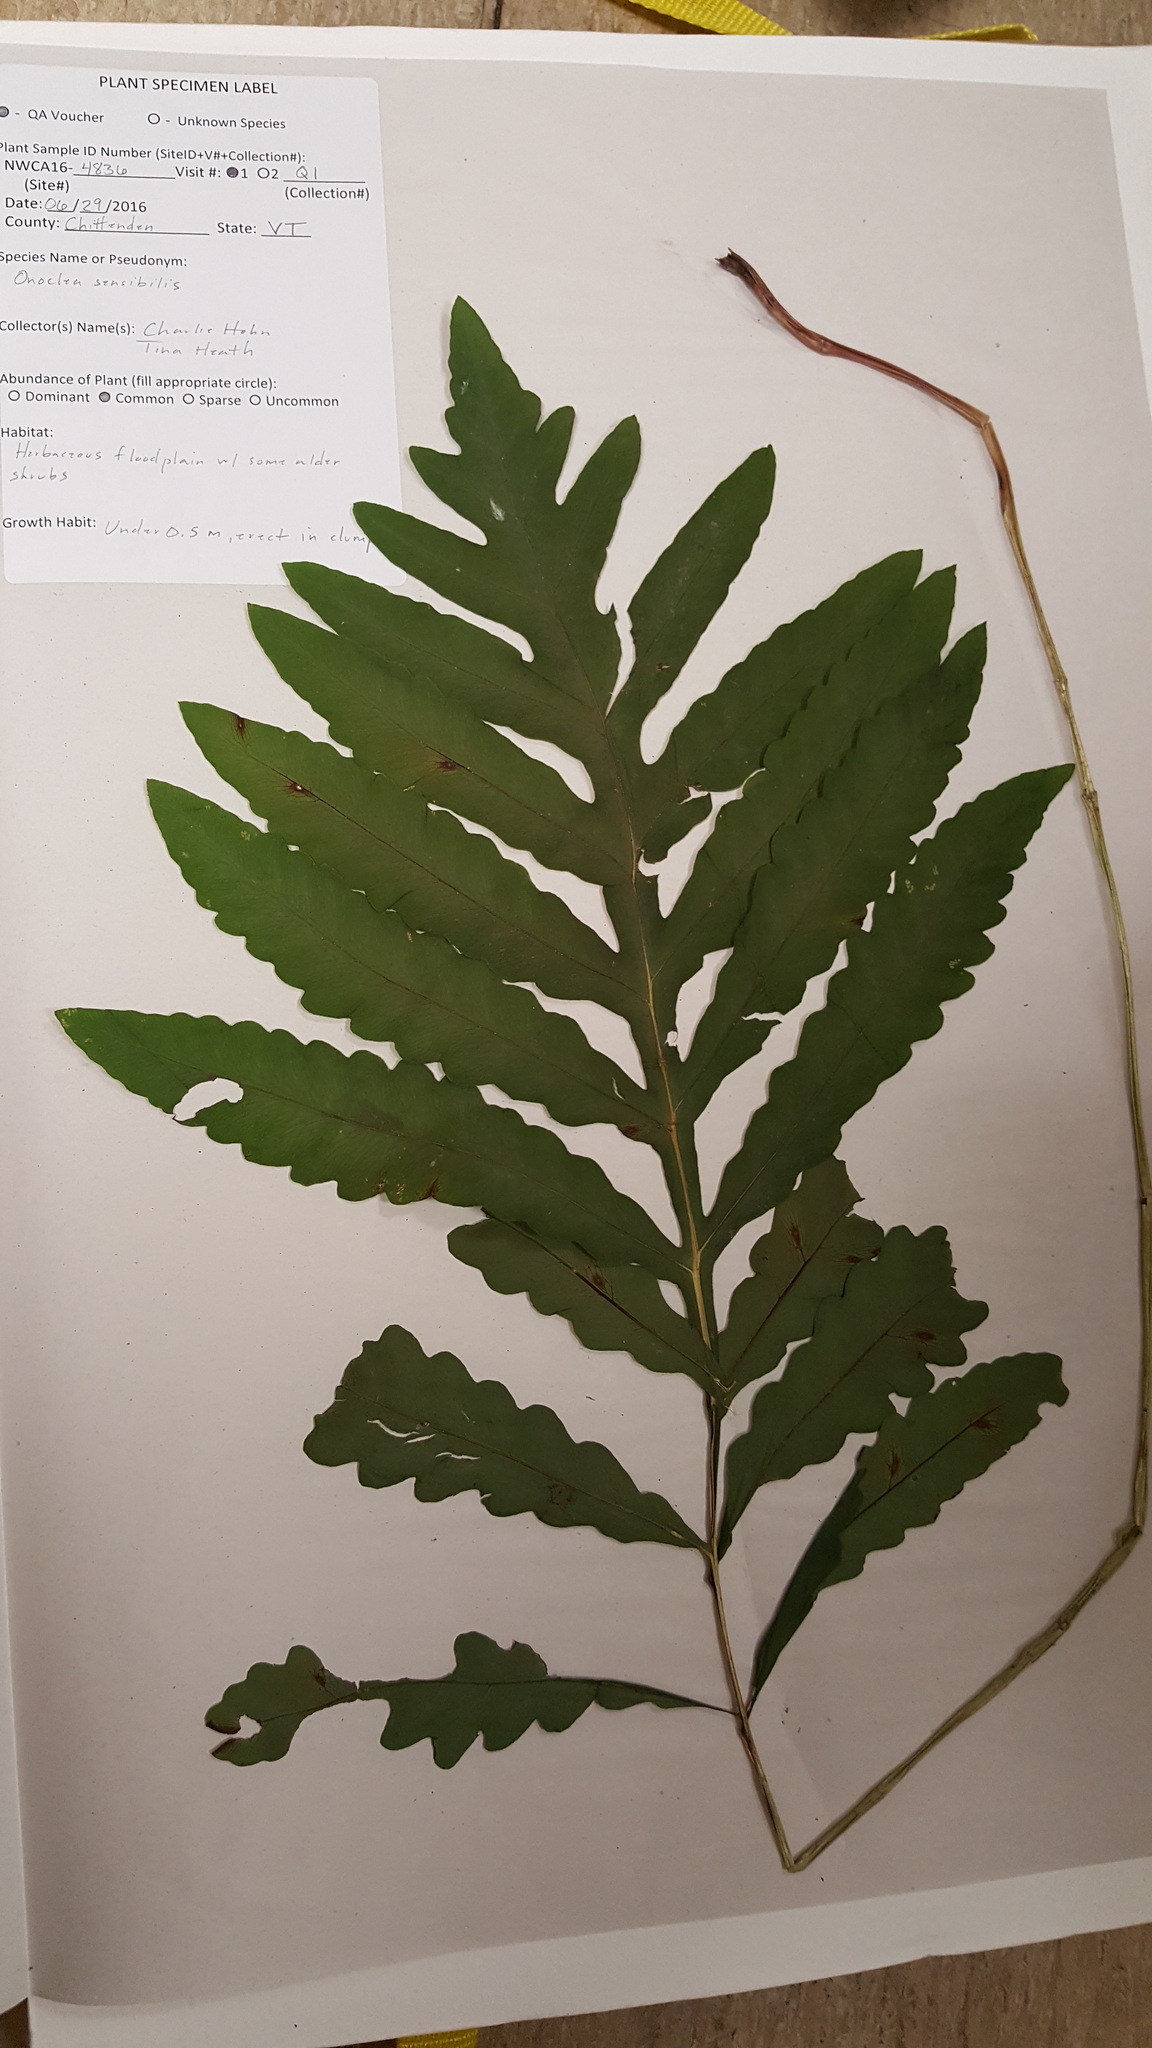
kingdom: Plantae
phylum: Tracheophyta
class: Polypodiopsida
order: Polypodiales
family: Onocleaceae
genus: Onoclea
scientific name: Onoclea sensibilis
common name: Sensitive fern
